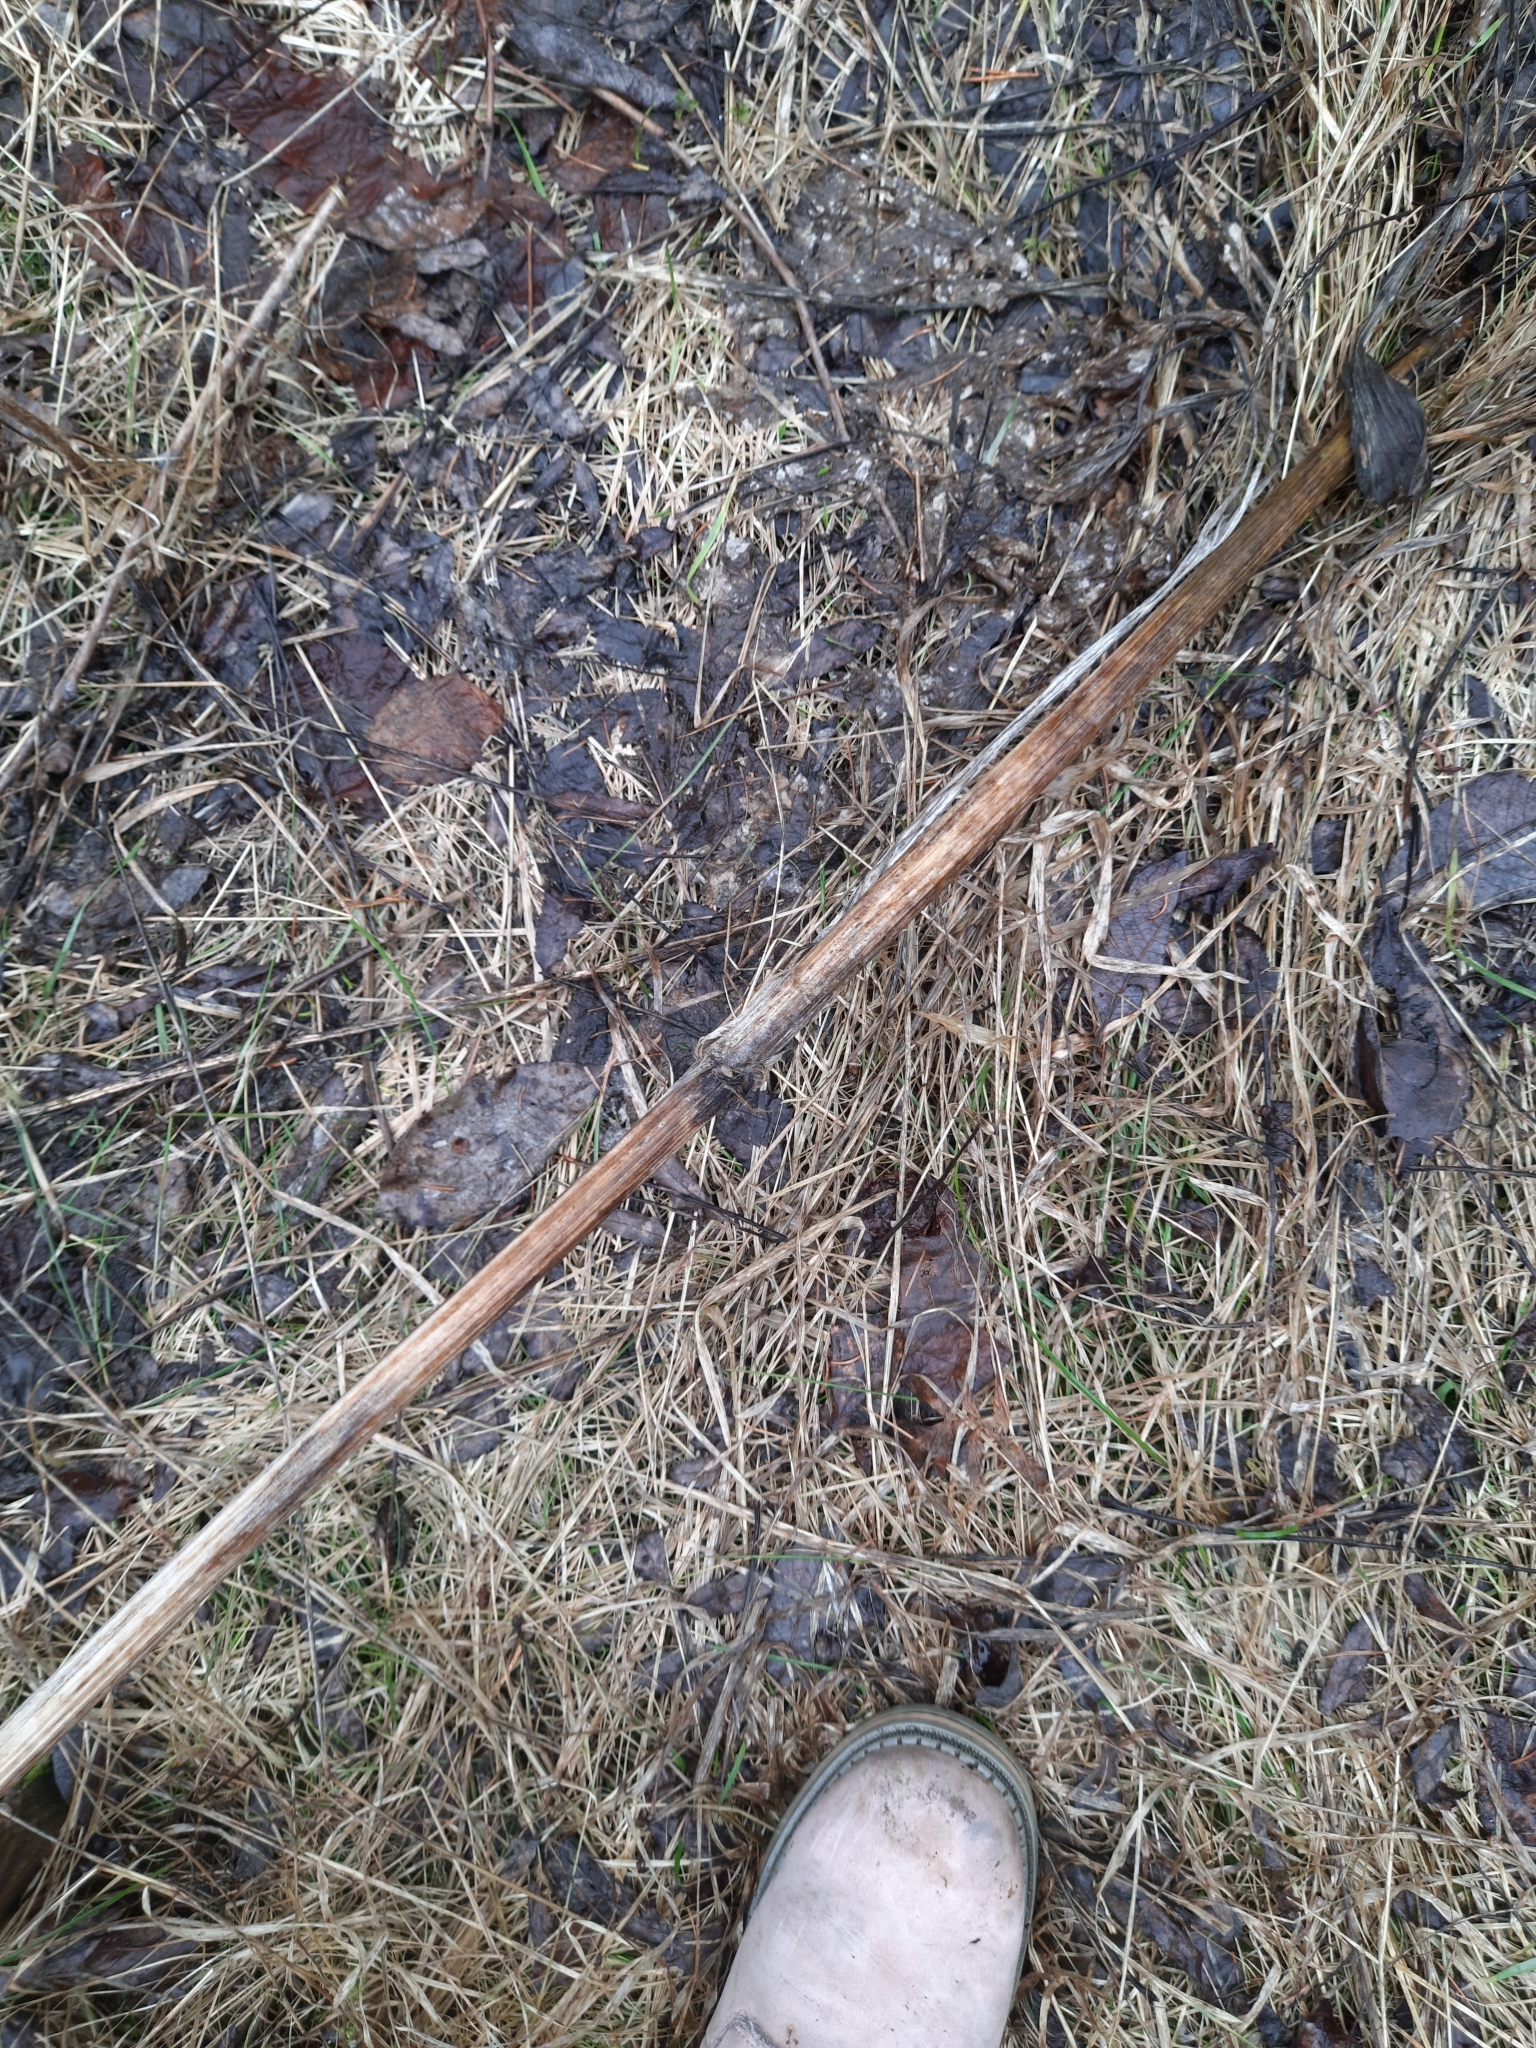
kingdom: Plantae
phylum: Tracheophyta
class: Magnoliopsida
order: Apiales
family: Apiaceae
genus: Angelica
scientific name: Angelica sylvestris
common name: Wild angelica
